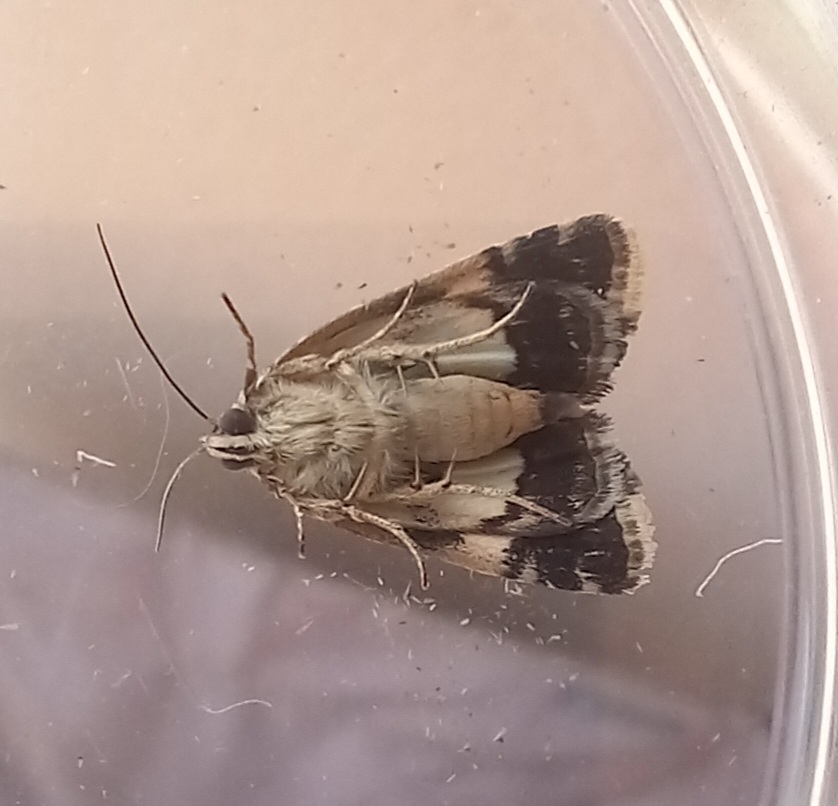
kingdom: Animalia
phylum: Arthropoda
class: Insecta
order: Lepidoptera
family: Erebidae
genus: Tyta
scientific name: Tyta luctuosa
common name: Four-spotted
